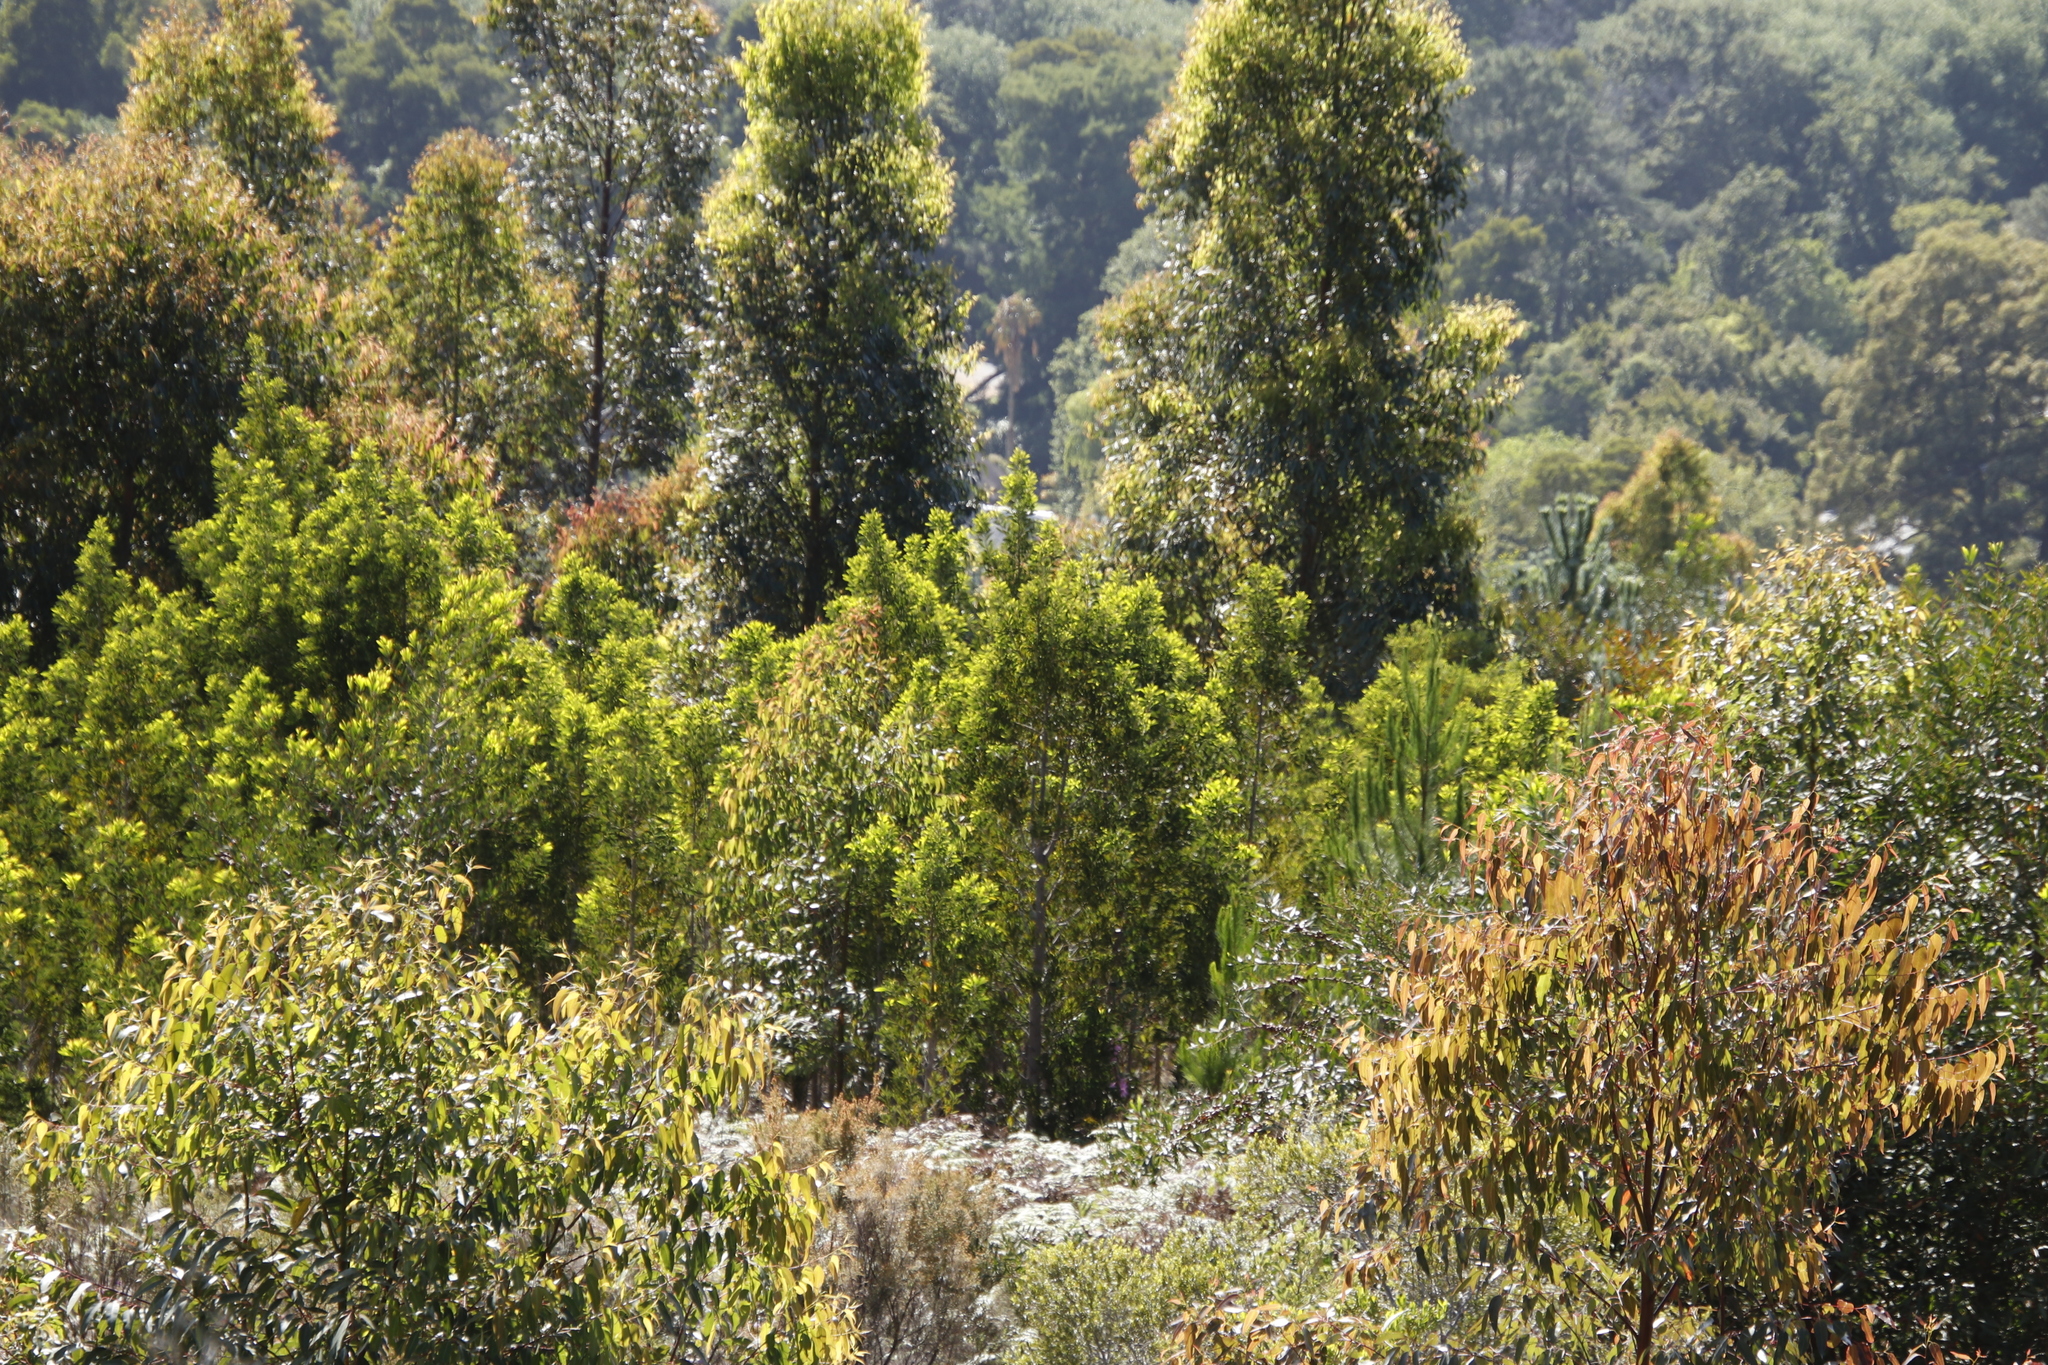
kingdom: Plantae
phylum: Tracheophyta
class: Magnoliopsida
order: Fabales
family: Fabaceae
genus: Acacia
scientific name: Acacia melanoxylon
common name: Blackwood
